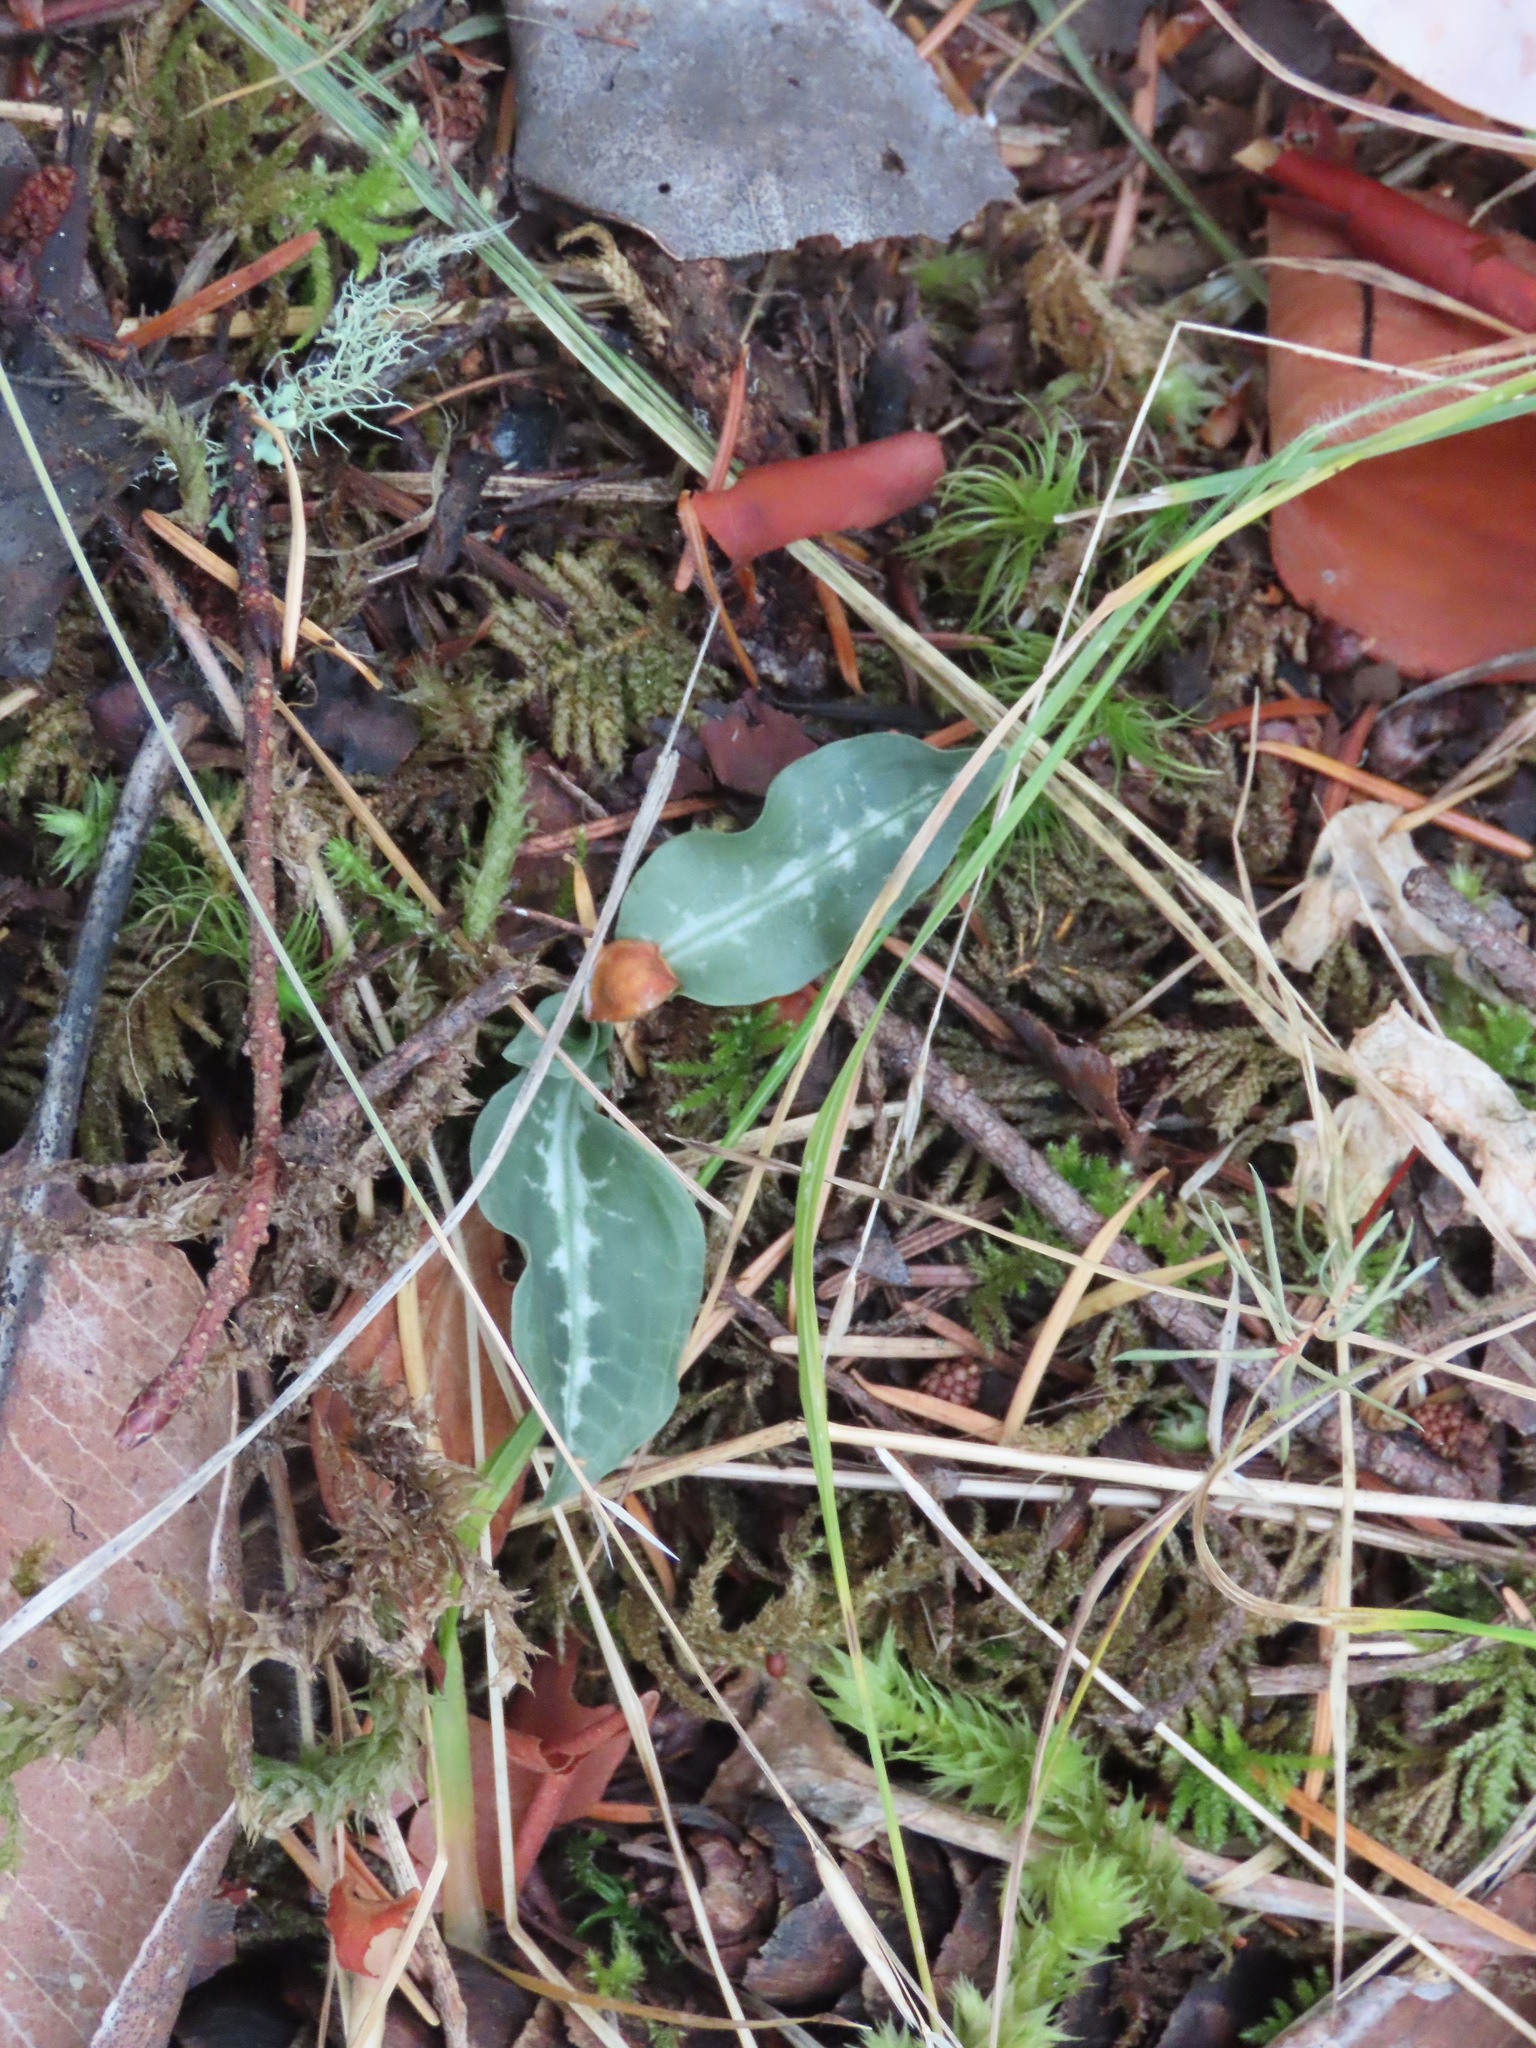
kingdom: Plantae
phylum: Tracheophyta
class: Liliopsida
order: Asparagales
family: Orchidaceae
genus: Goodyera
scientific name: Goodyera oblongifolia
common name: Giant rattlesnake-plantain
